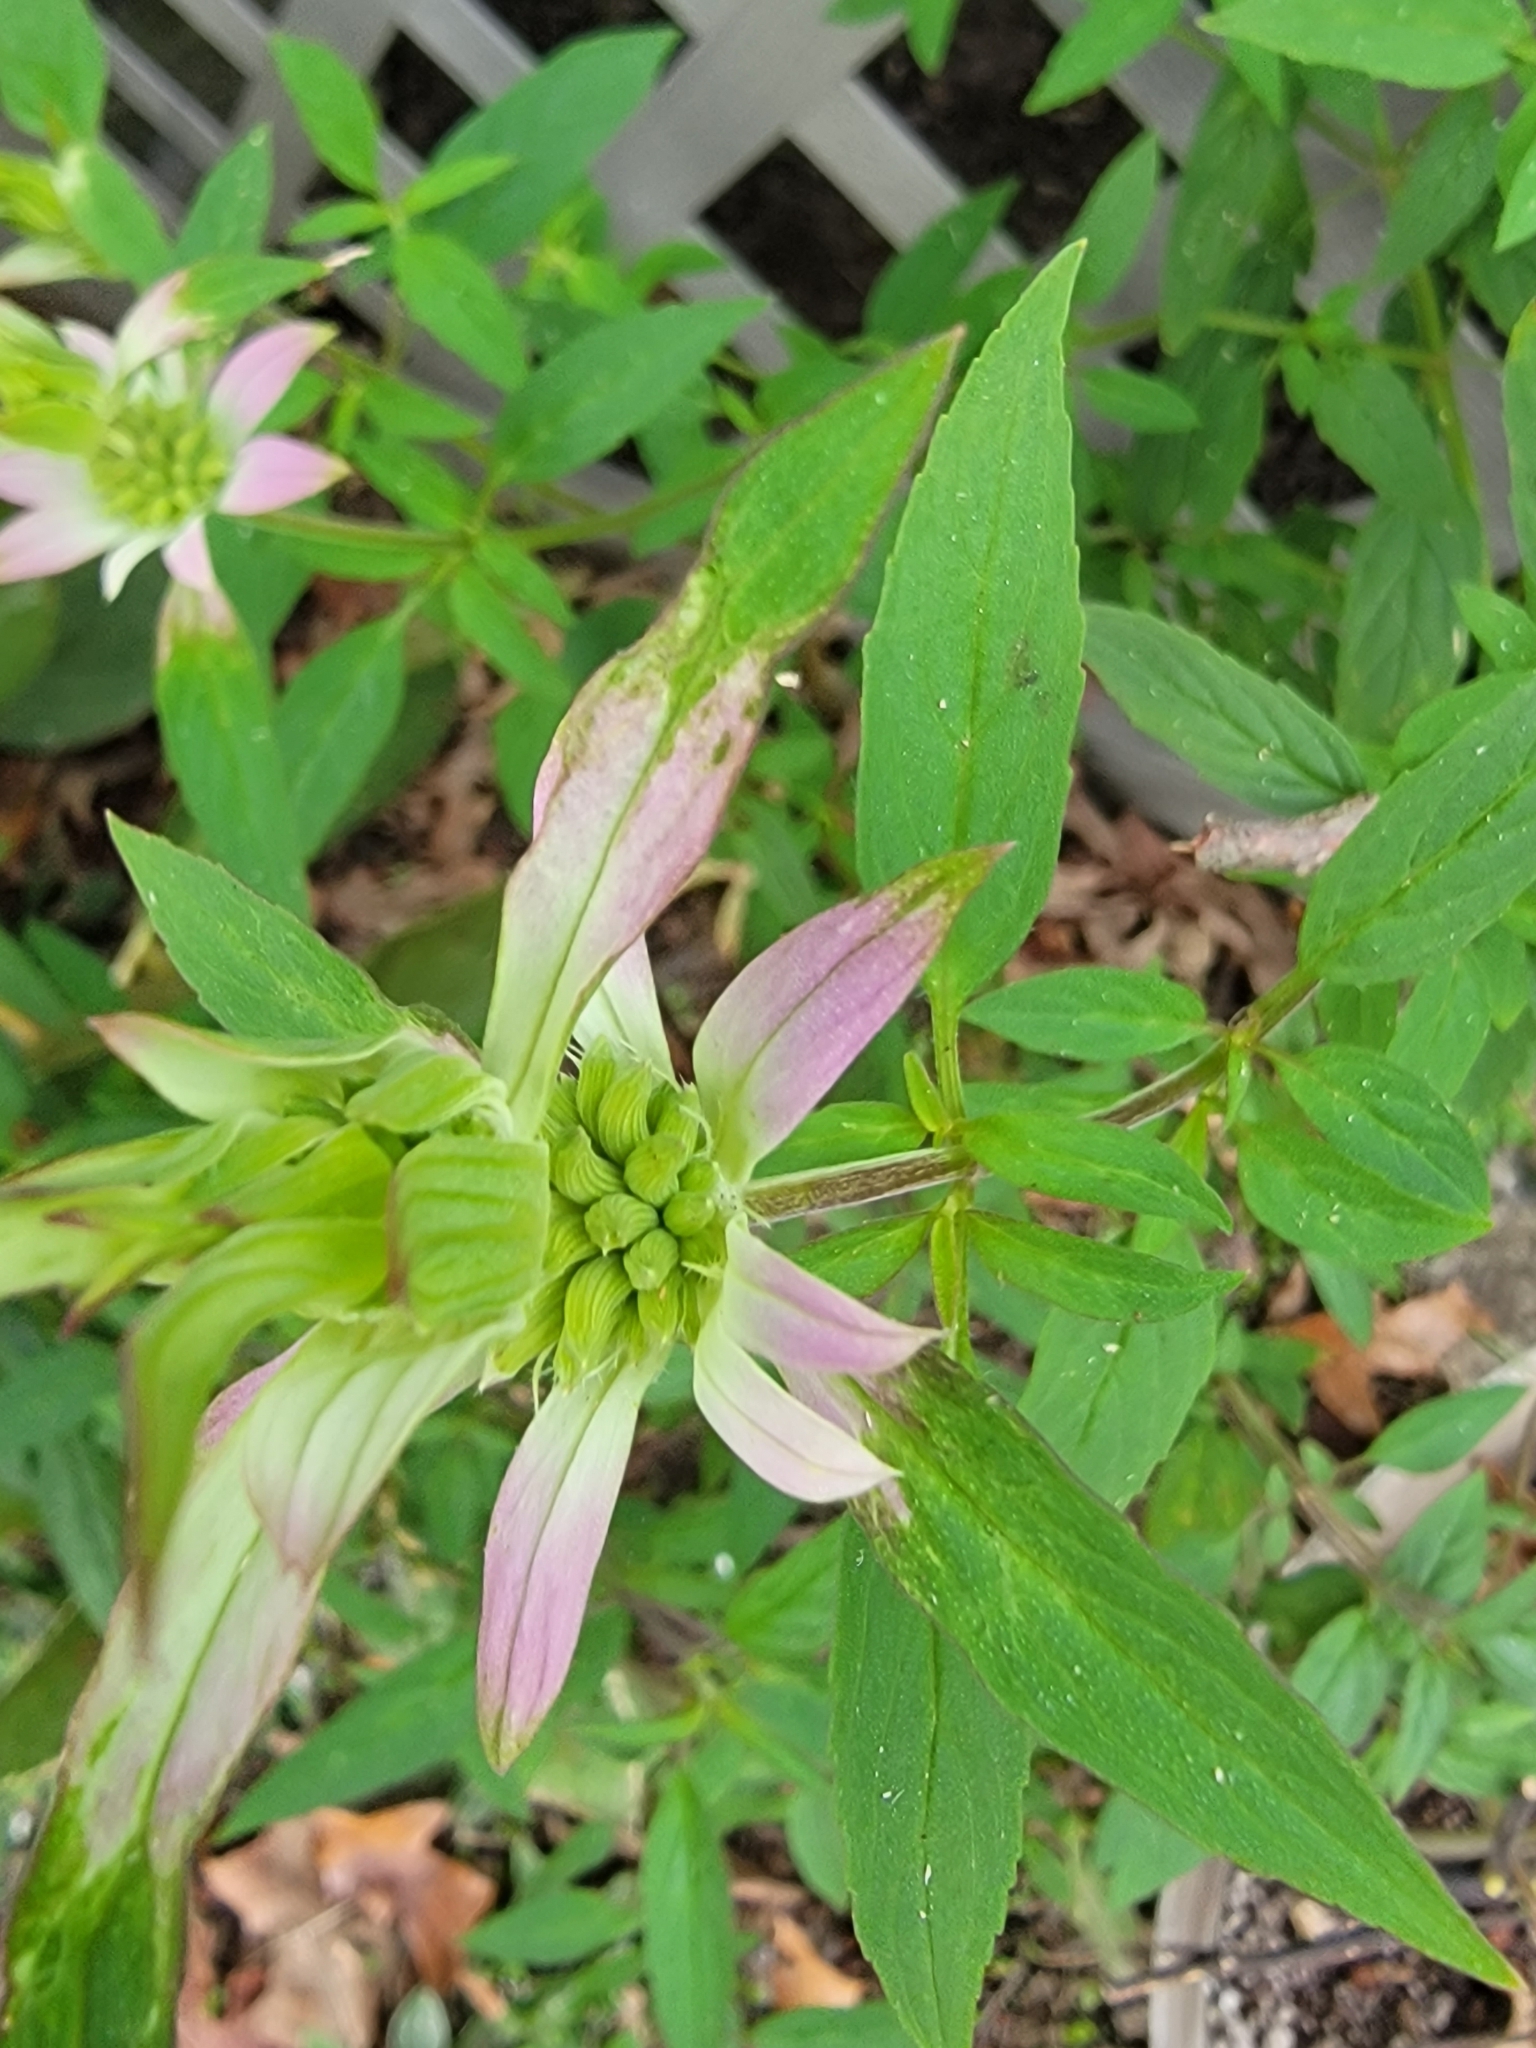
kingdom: Plantae
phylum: Tracheophyta
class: Magnoliopsida
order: Lamiales
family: Lamiaceae
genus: Monarda
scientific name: Monarda punctata
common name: Dotted monarda
